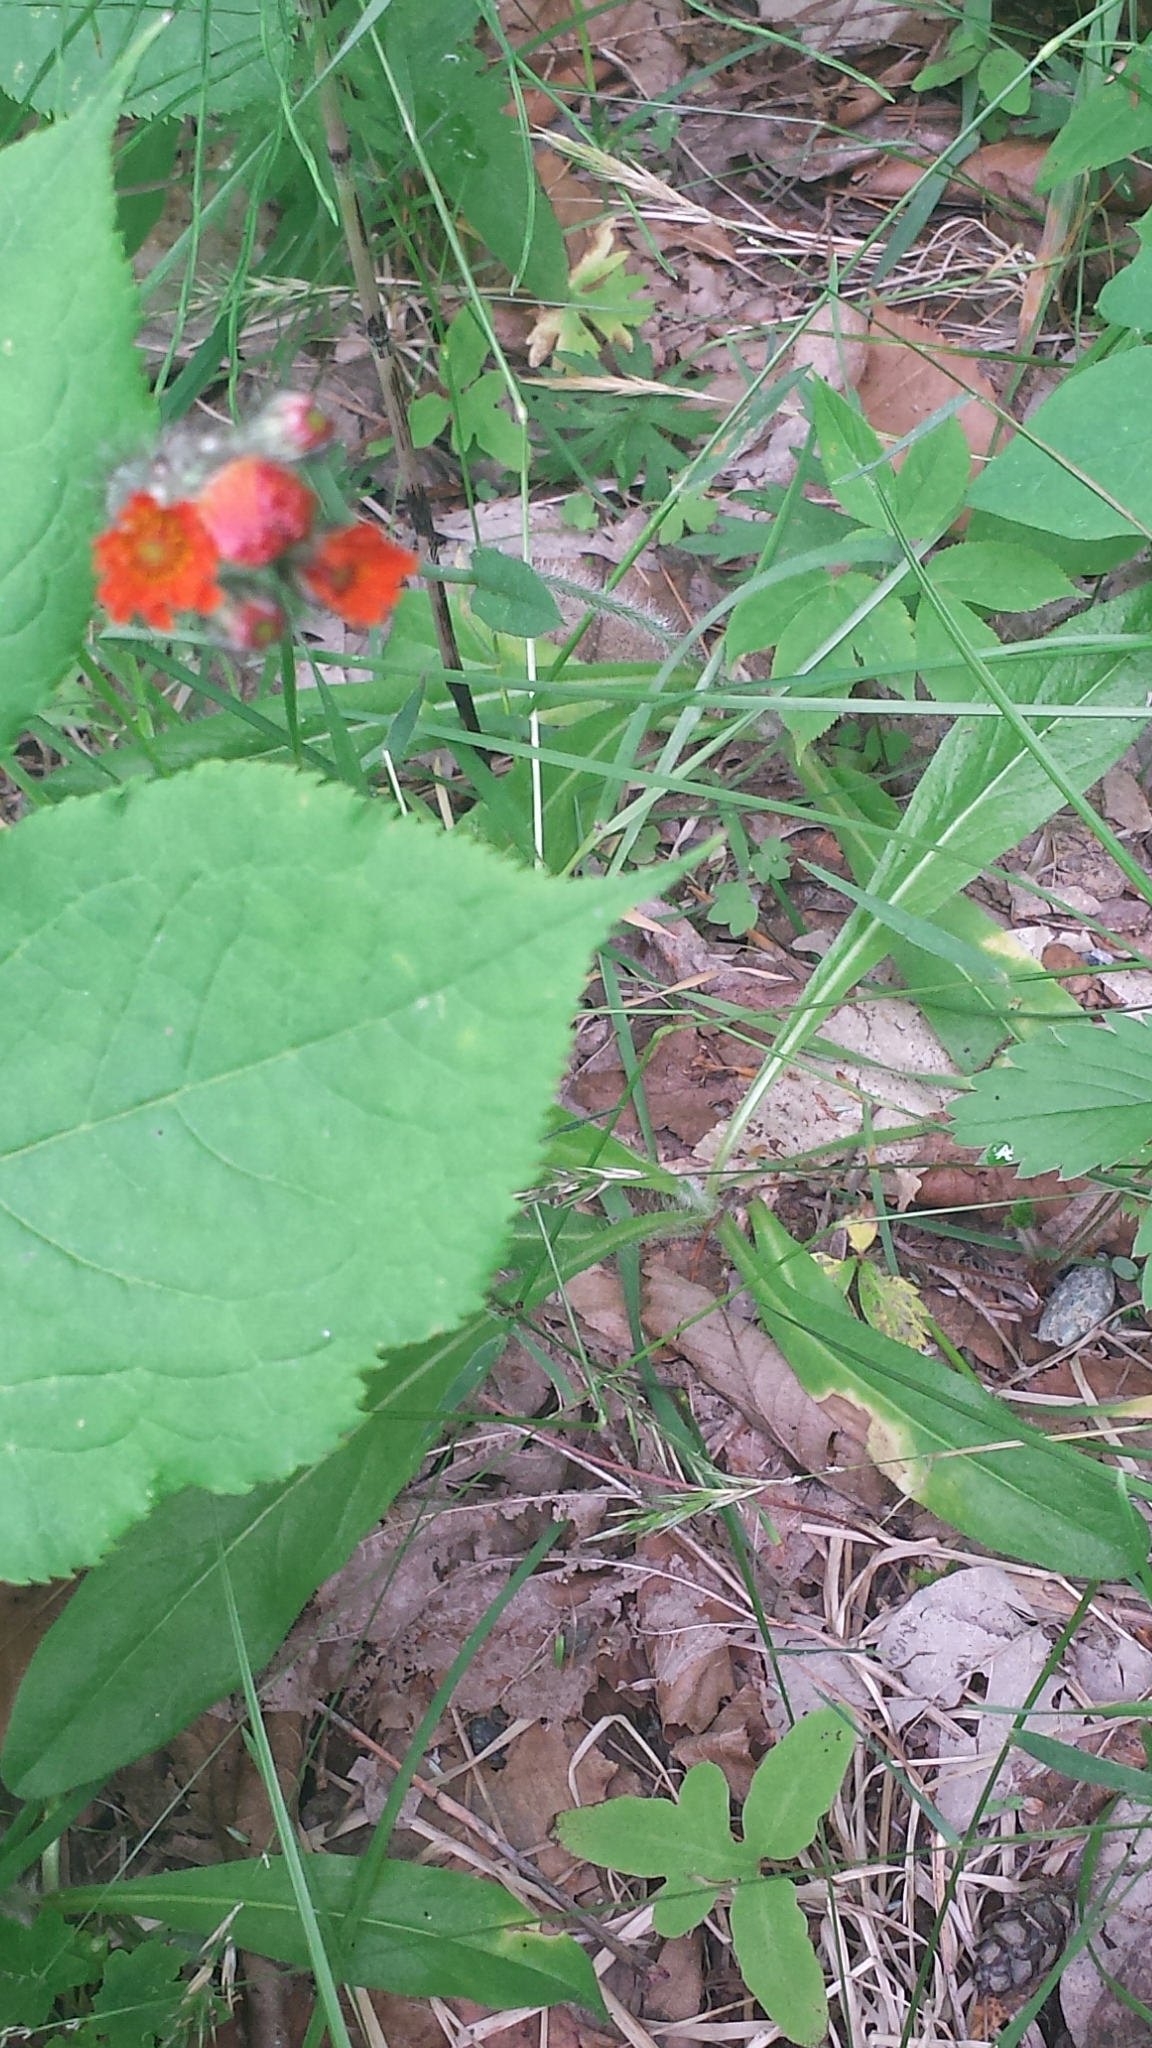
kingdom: Plantae
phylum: Tracheophyta
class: Magnoliopsida
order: Asterales
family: Asteraceae
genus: Pilosella
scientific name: Pilosella aurantiaca
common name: Fox-and-cubs
